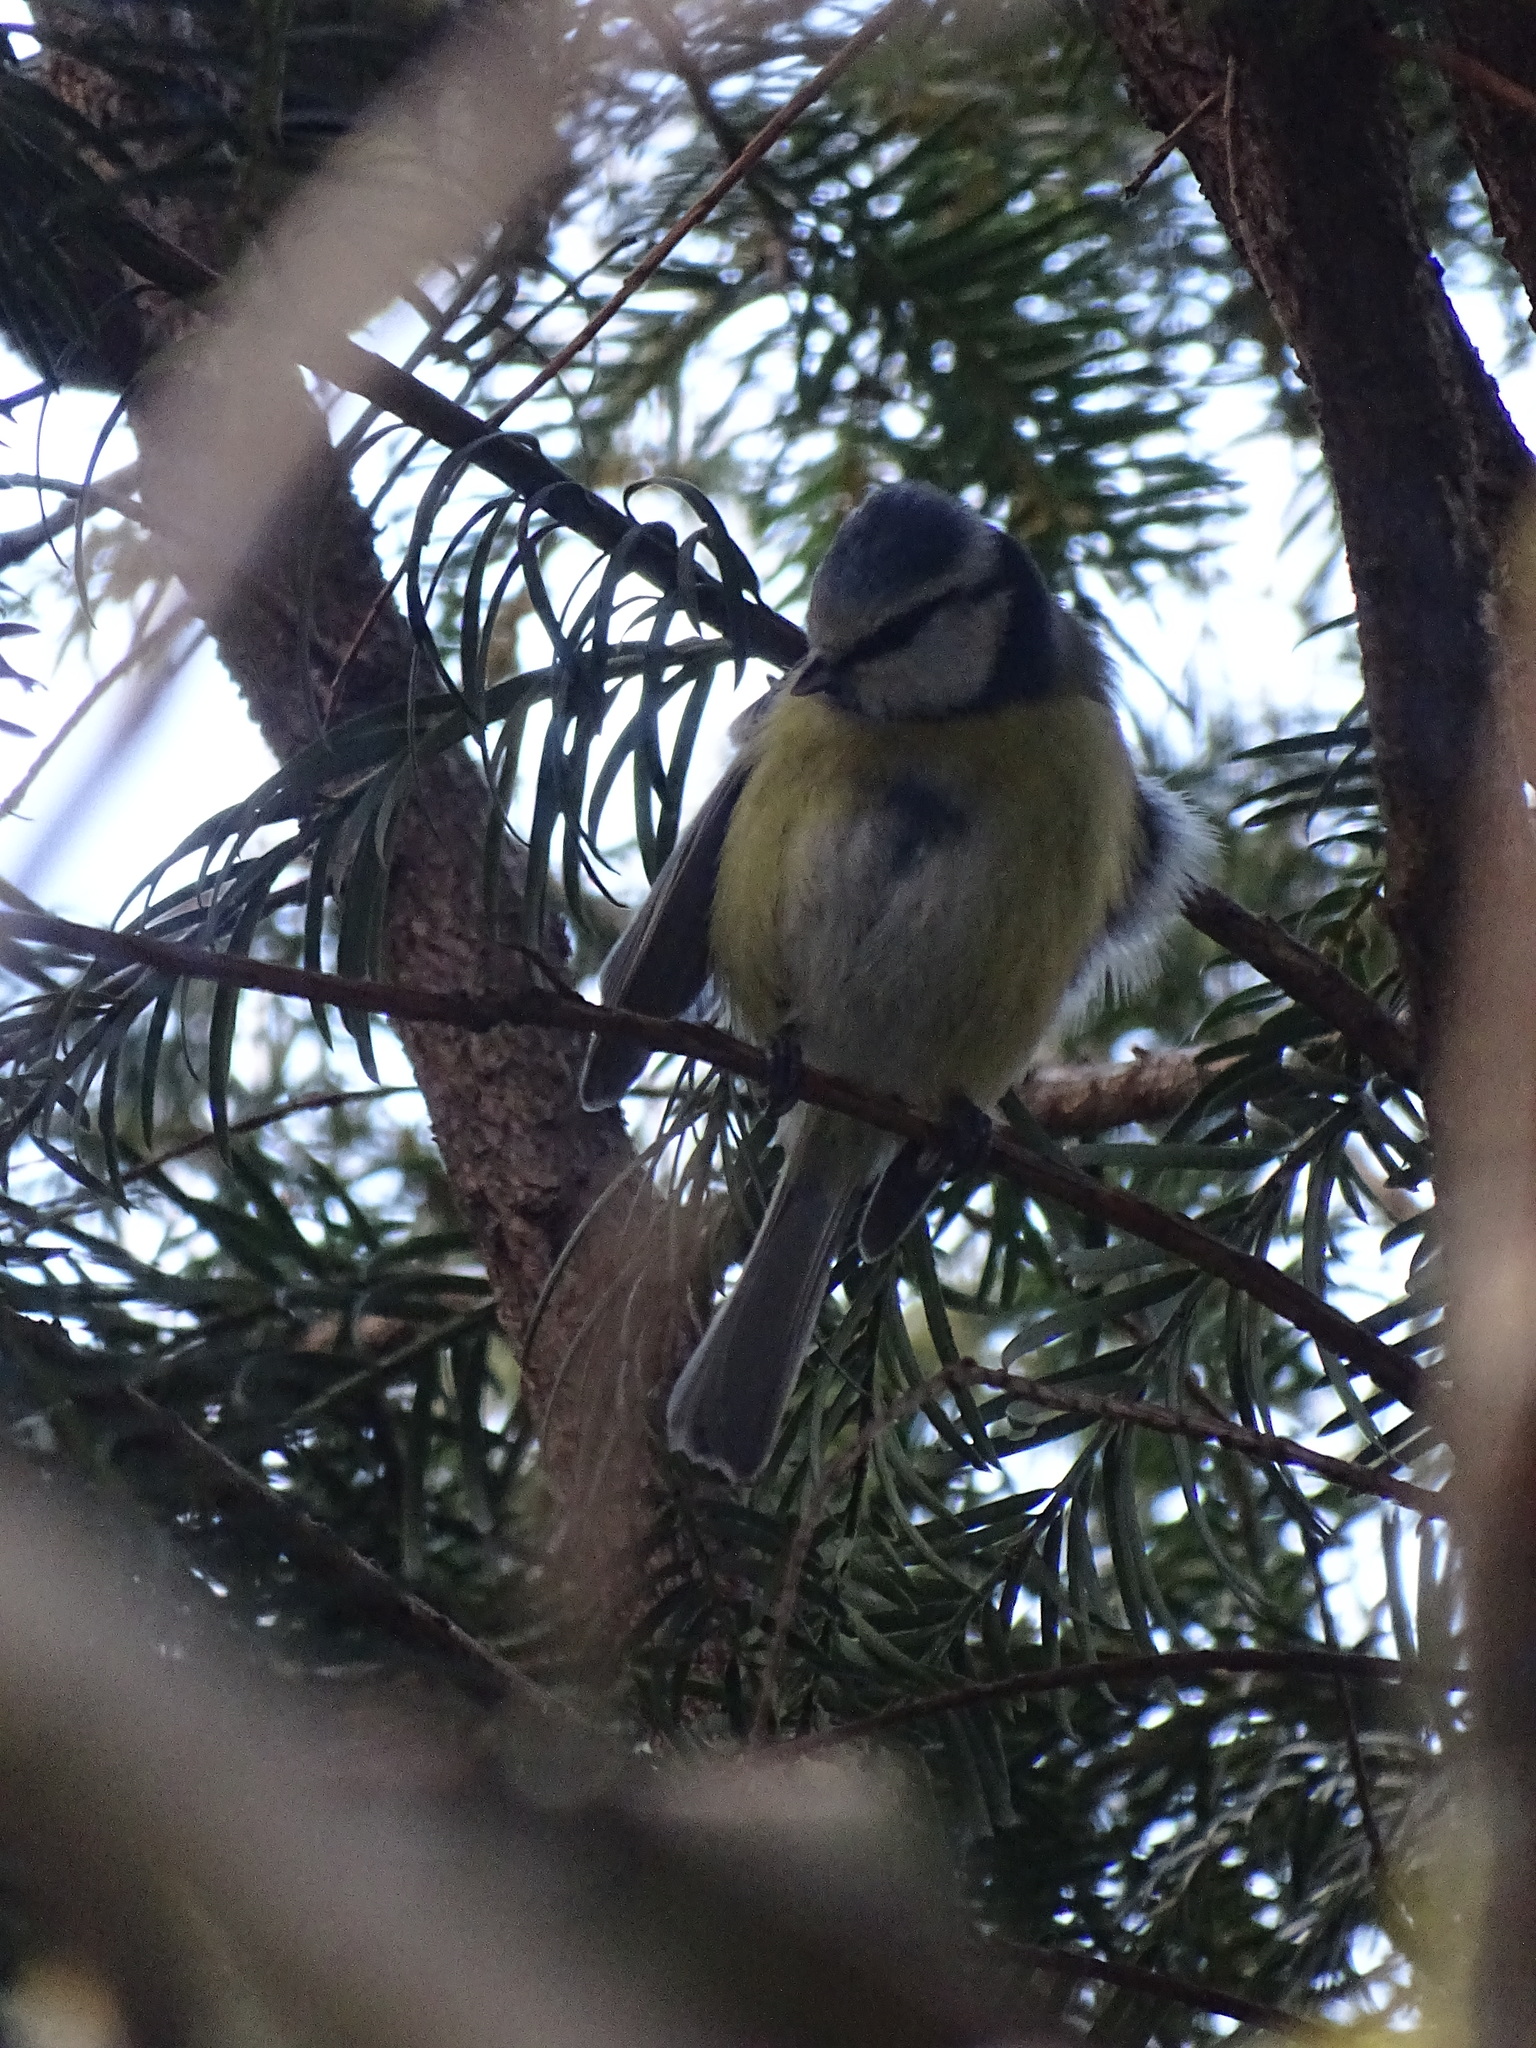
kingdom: Animalia
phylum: Chordata
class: Aves
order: Passeriformes
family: Paridae
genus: Cyanistes
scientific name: Cyanistes caeruleus
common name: Eurasian blue tit
